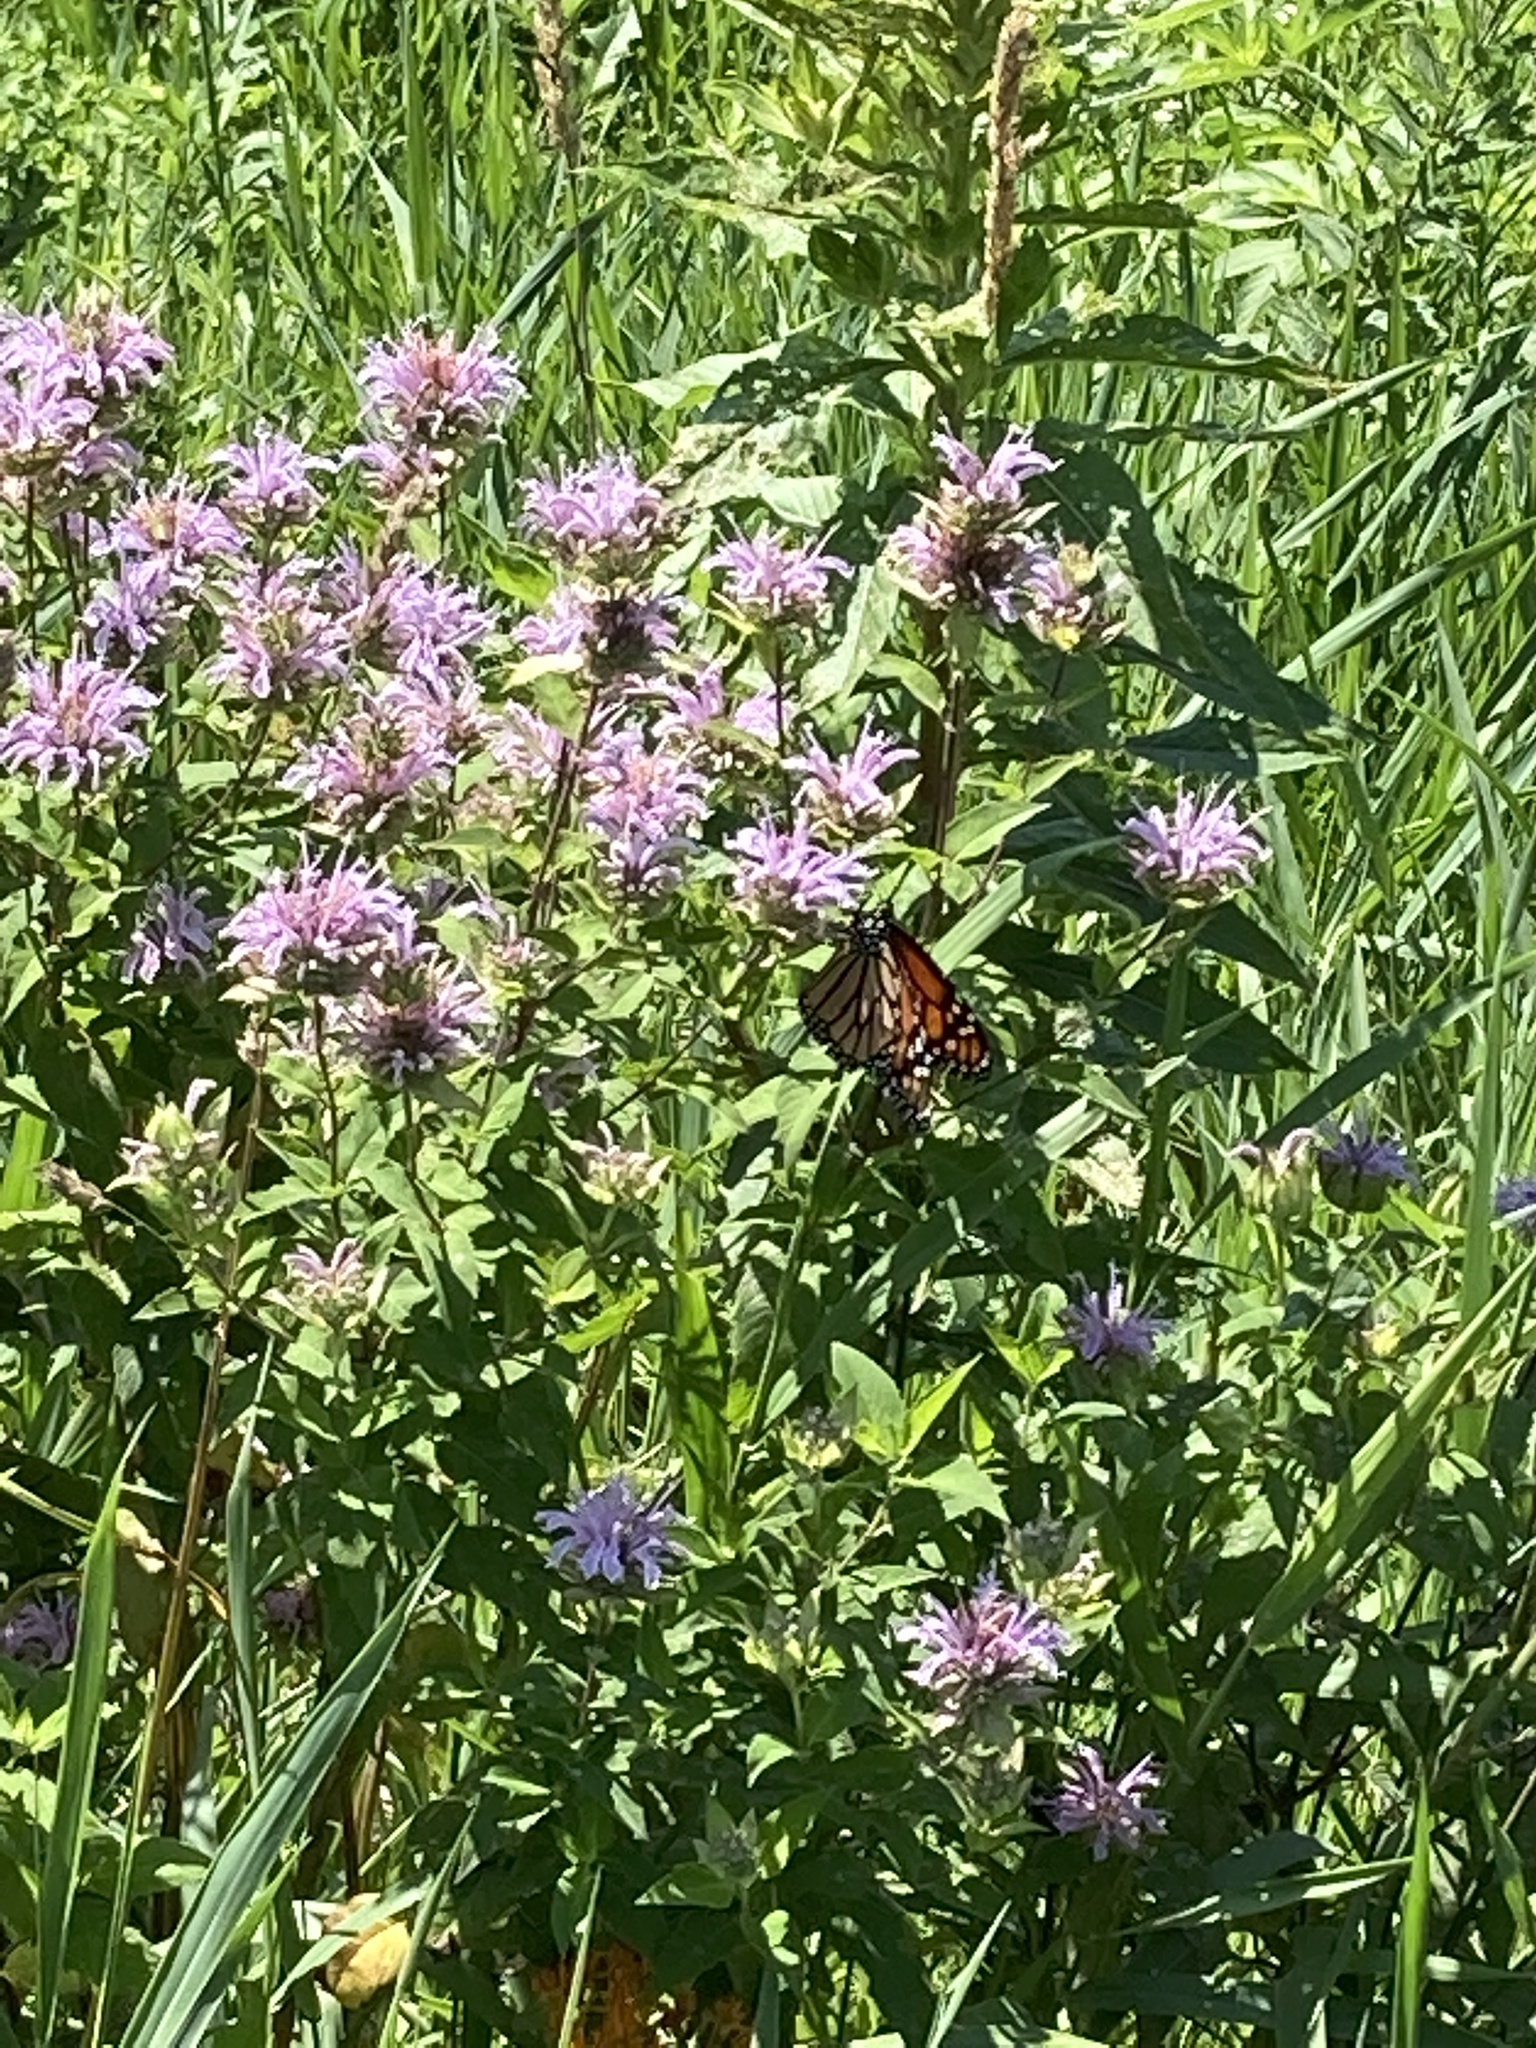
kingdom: Plantae
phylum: Tracheophyta
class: Magnoliopsida
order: Lamiales
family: Lamiaceae
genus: Monarda
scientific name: Monarda fistulosa
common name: Purple beebalm
